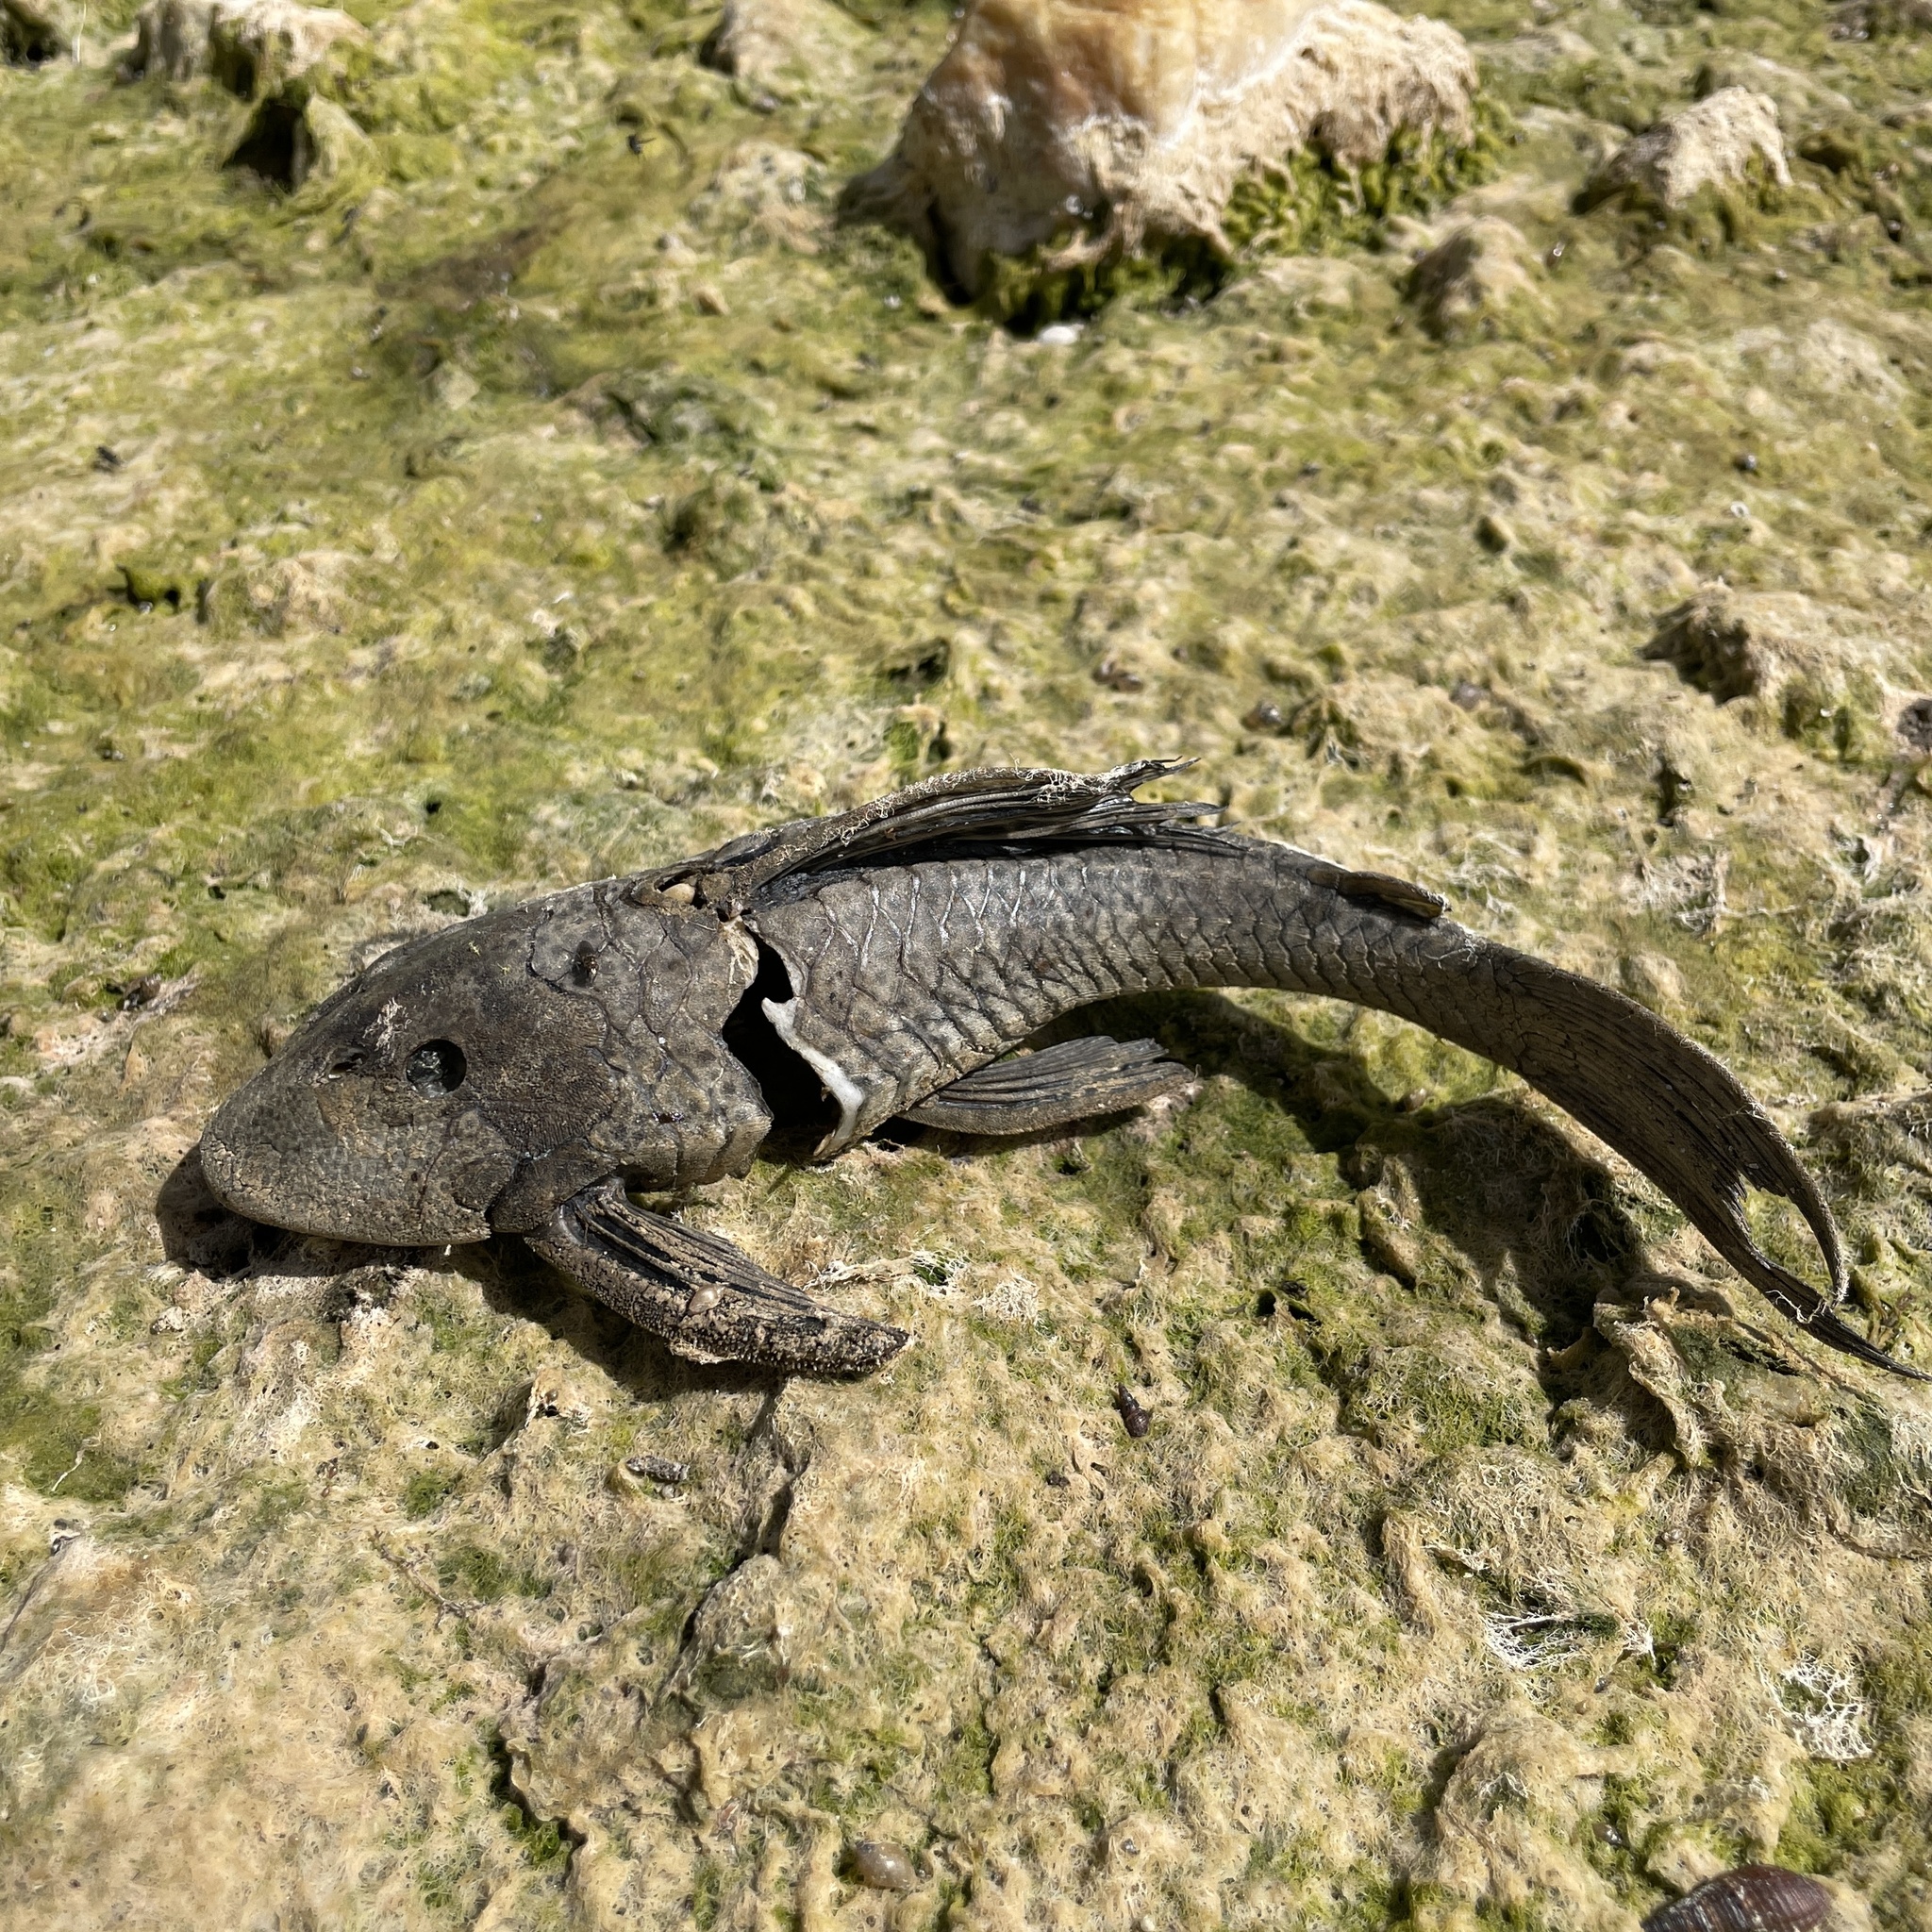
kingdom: Animalia
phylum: Chordata
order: Siluriformes
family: Loricariidae
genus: Hypostomus
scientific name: Hypostomus robinii
